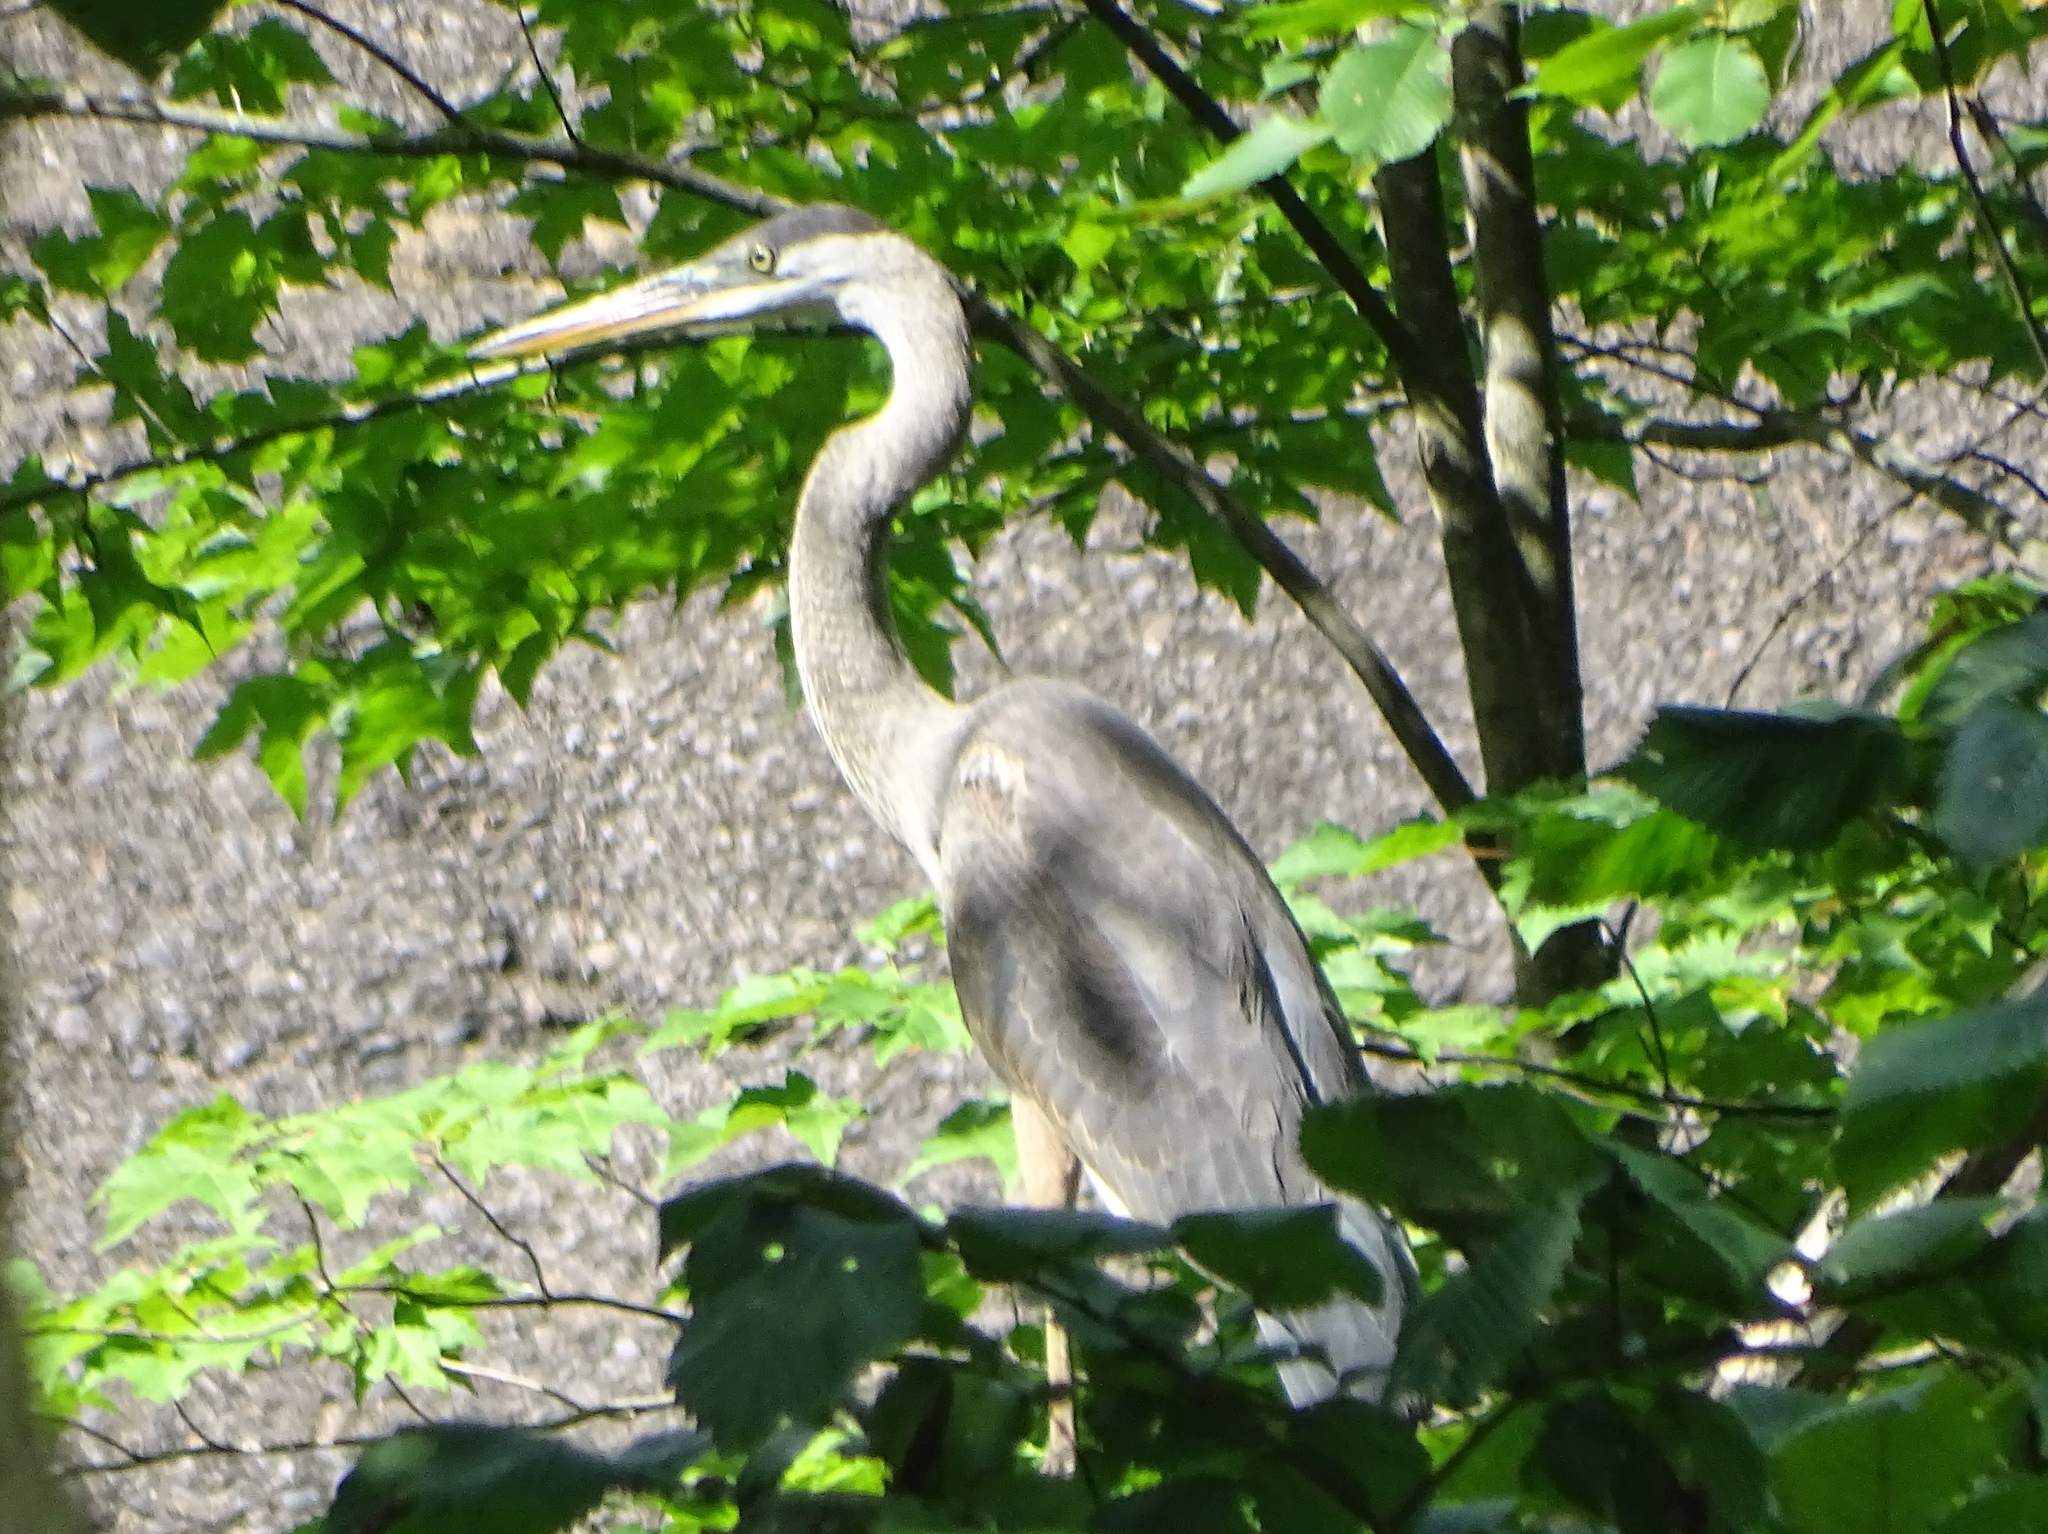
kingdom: Animalia
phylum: Chordata
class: Aves
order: Pelecaniformes
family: Ardeidae
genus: Ardea
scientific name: Ardea herodias
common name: Great blue heron
